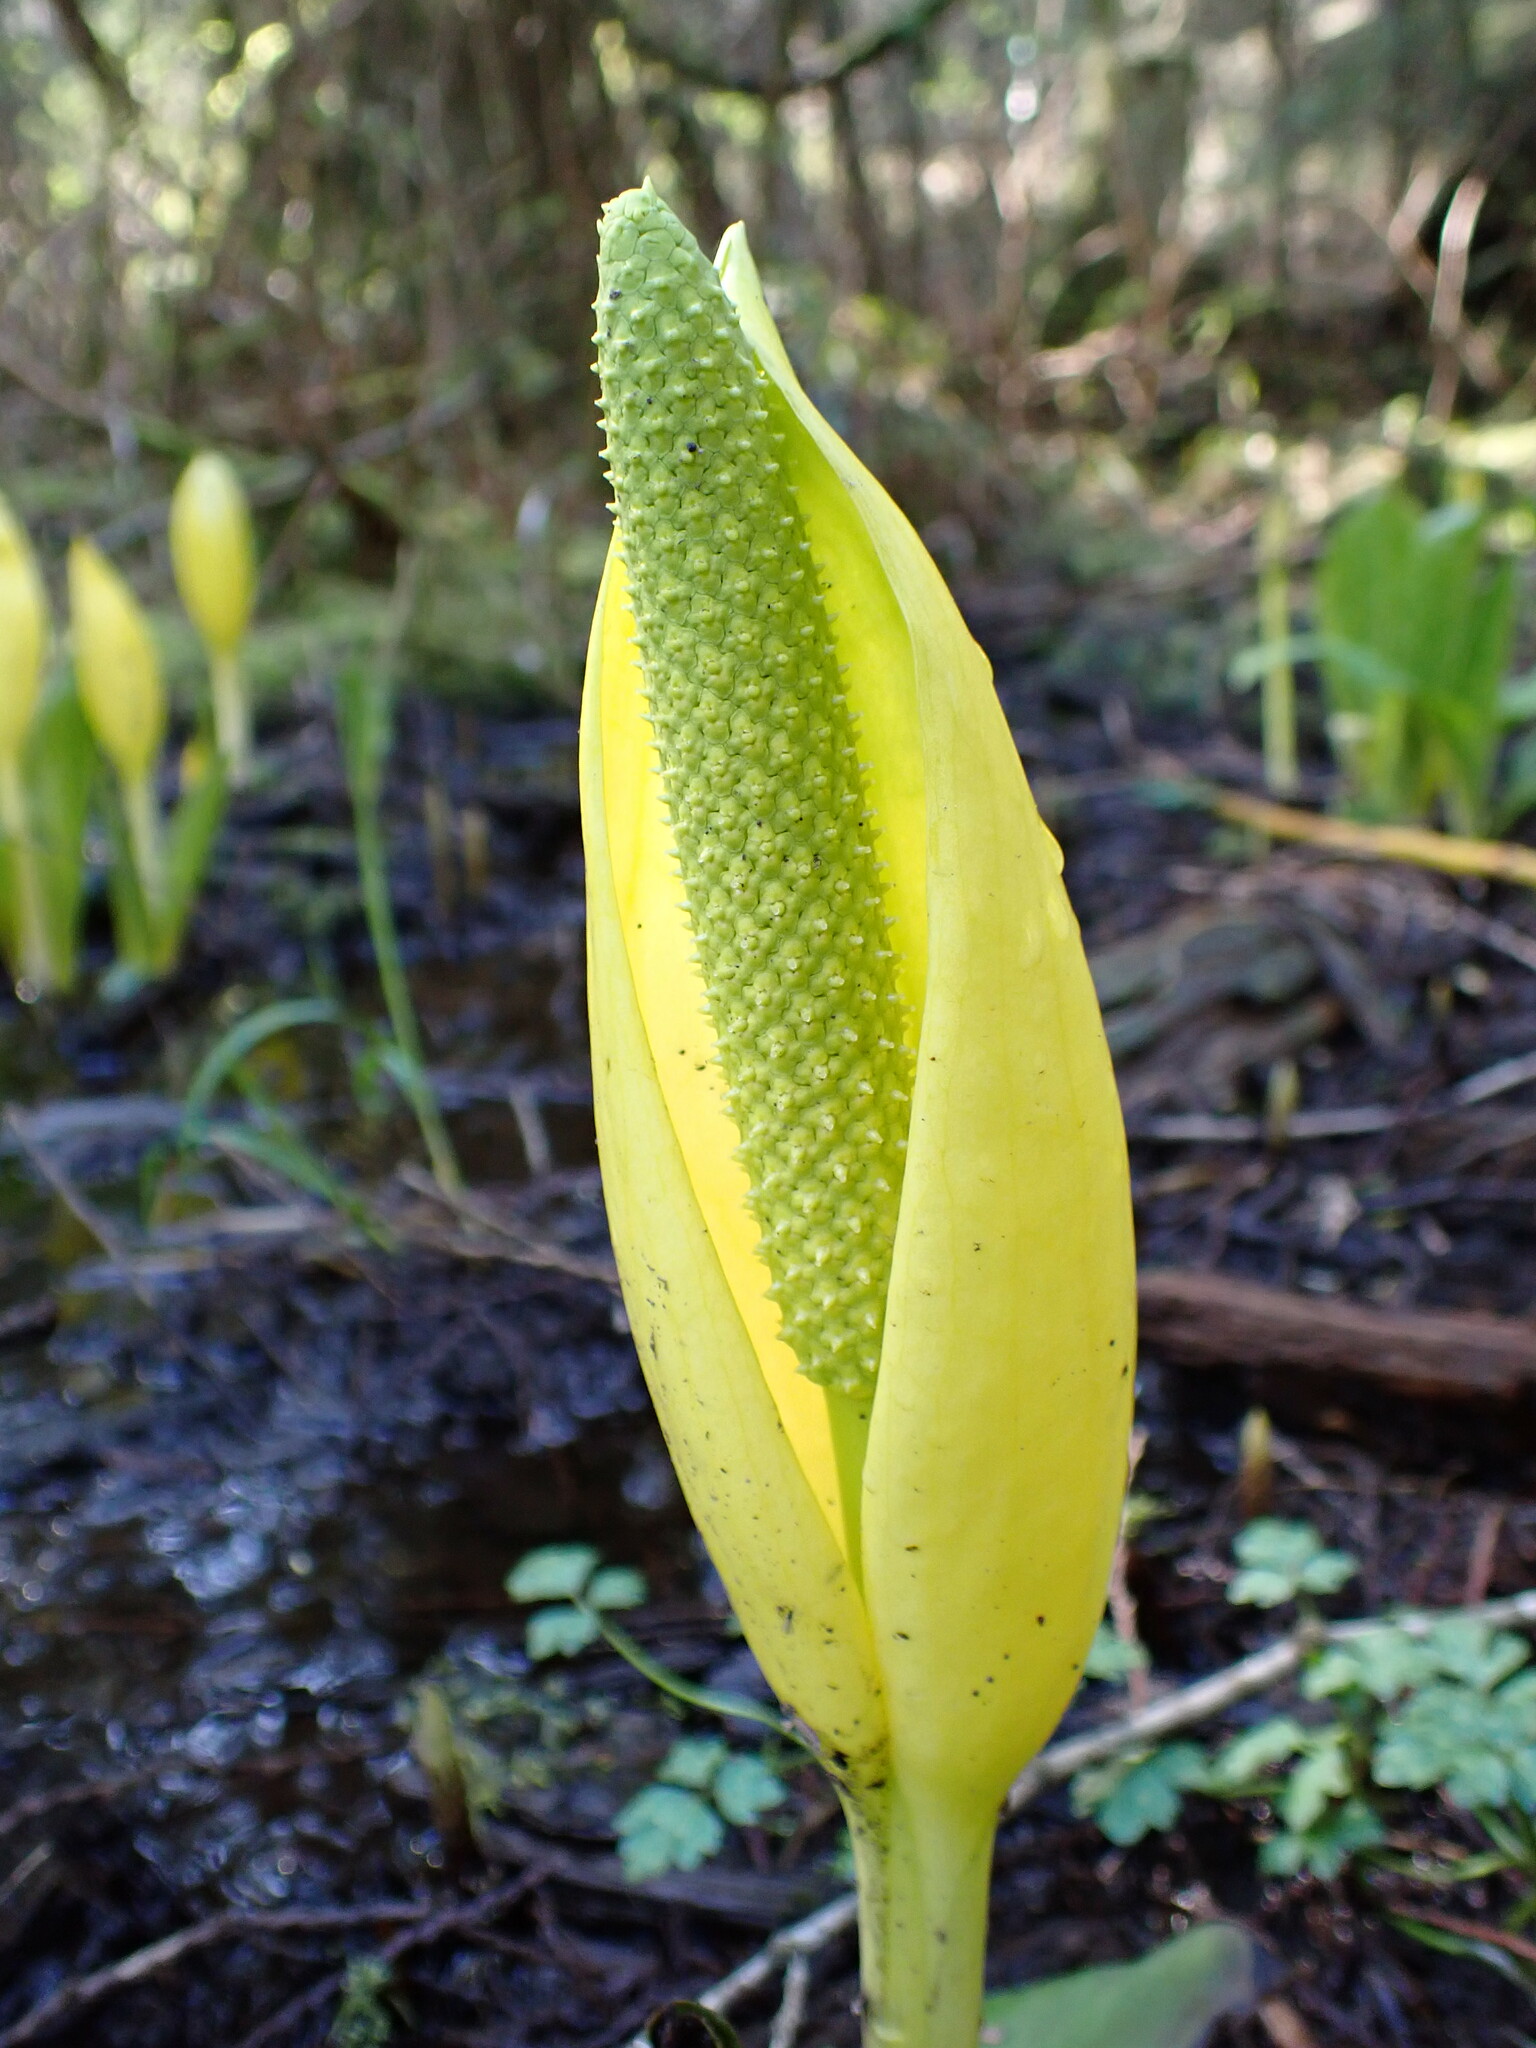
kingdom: Plantae
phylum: Tracheophyta
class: Liliopsida
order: Alismatales
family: Araceae
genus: Lysichiton
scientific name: Lysichiton americanus
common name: American skunk cabbage
